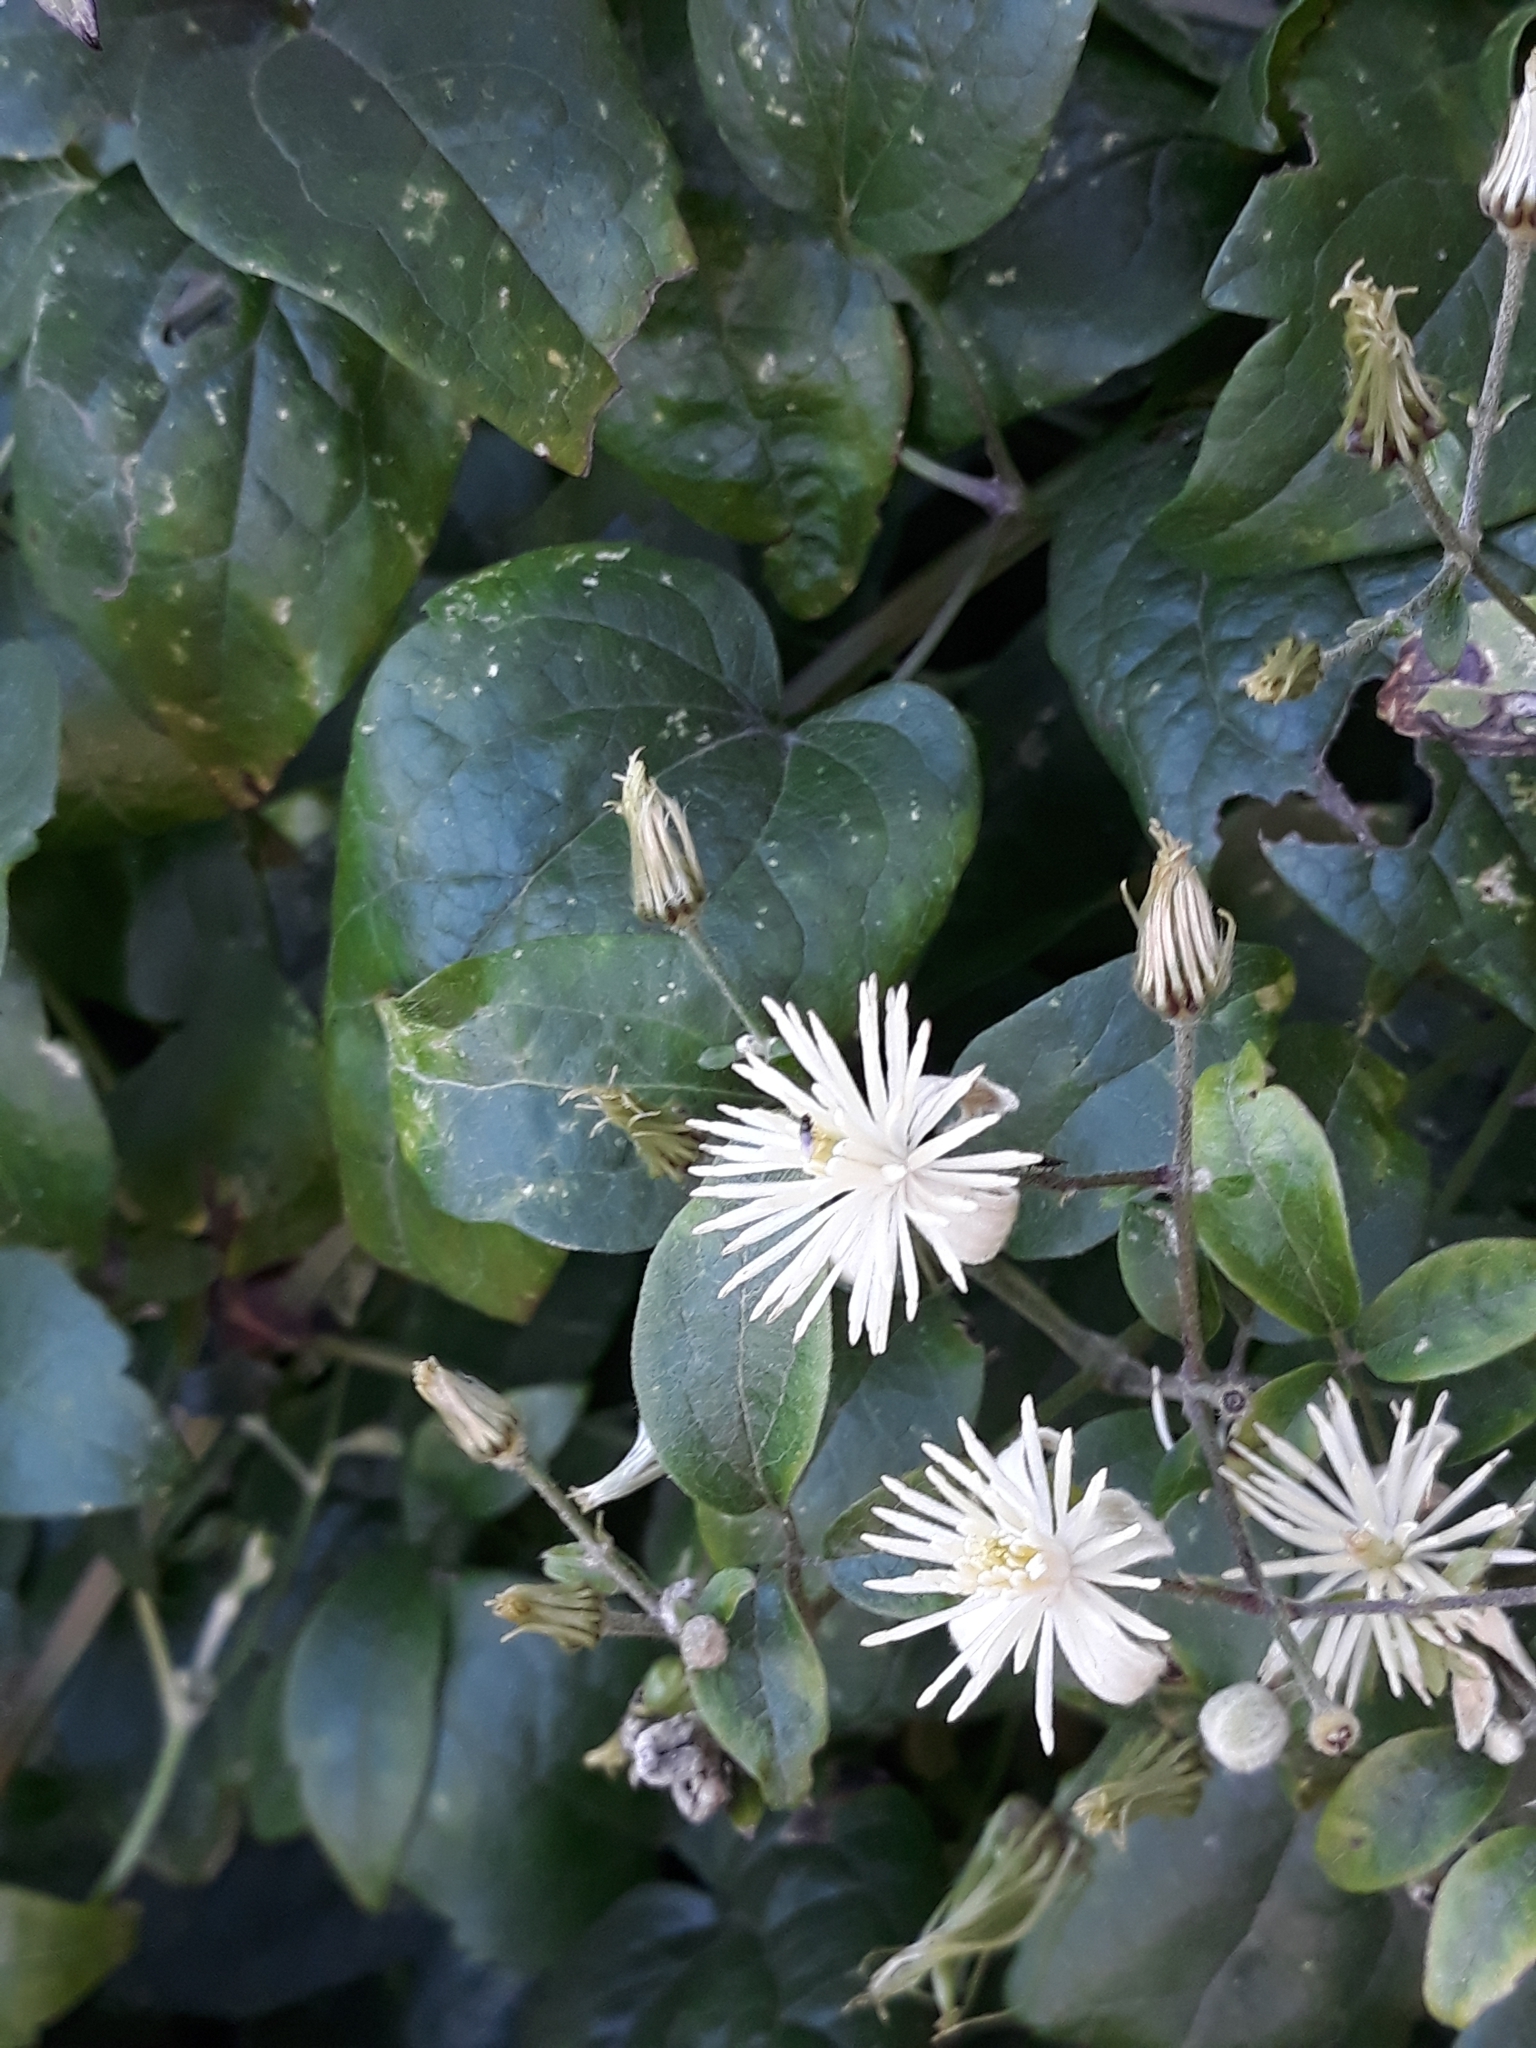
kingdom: Plantae
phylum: Tracheophyta
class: Magnoliopsida
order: Ranunculales
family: Ranunculaceae
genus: Clematis
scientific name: Clematis vitalba
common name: Evergreen clematis
